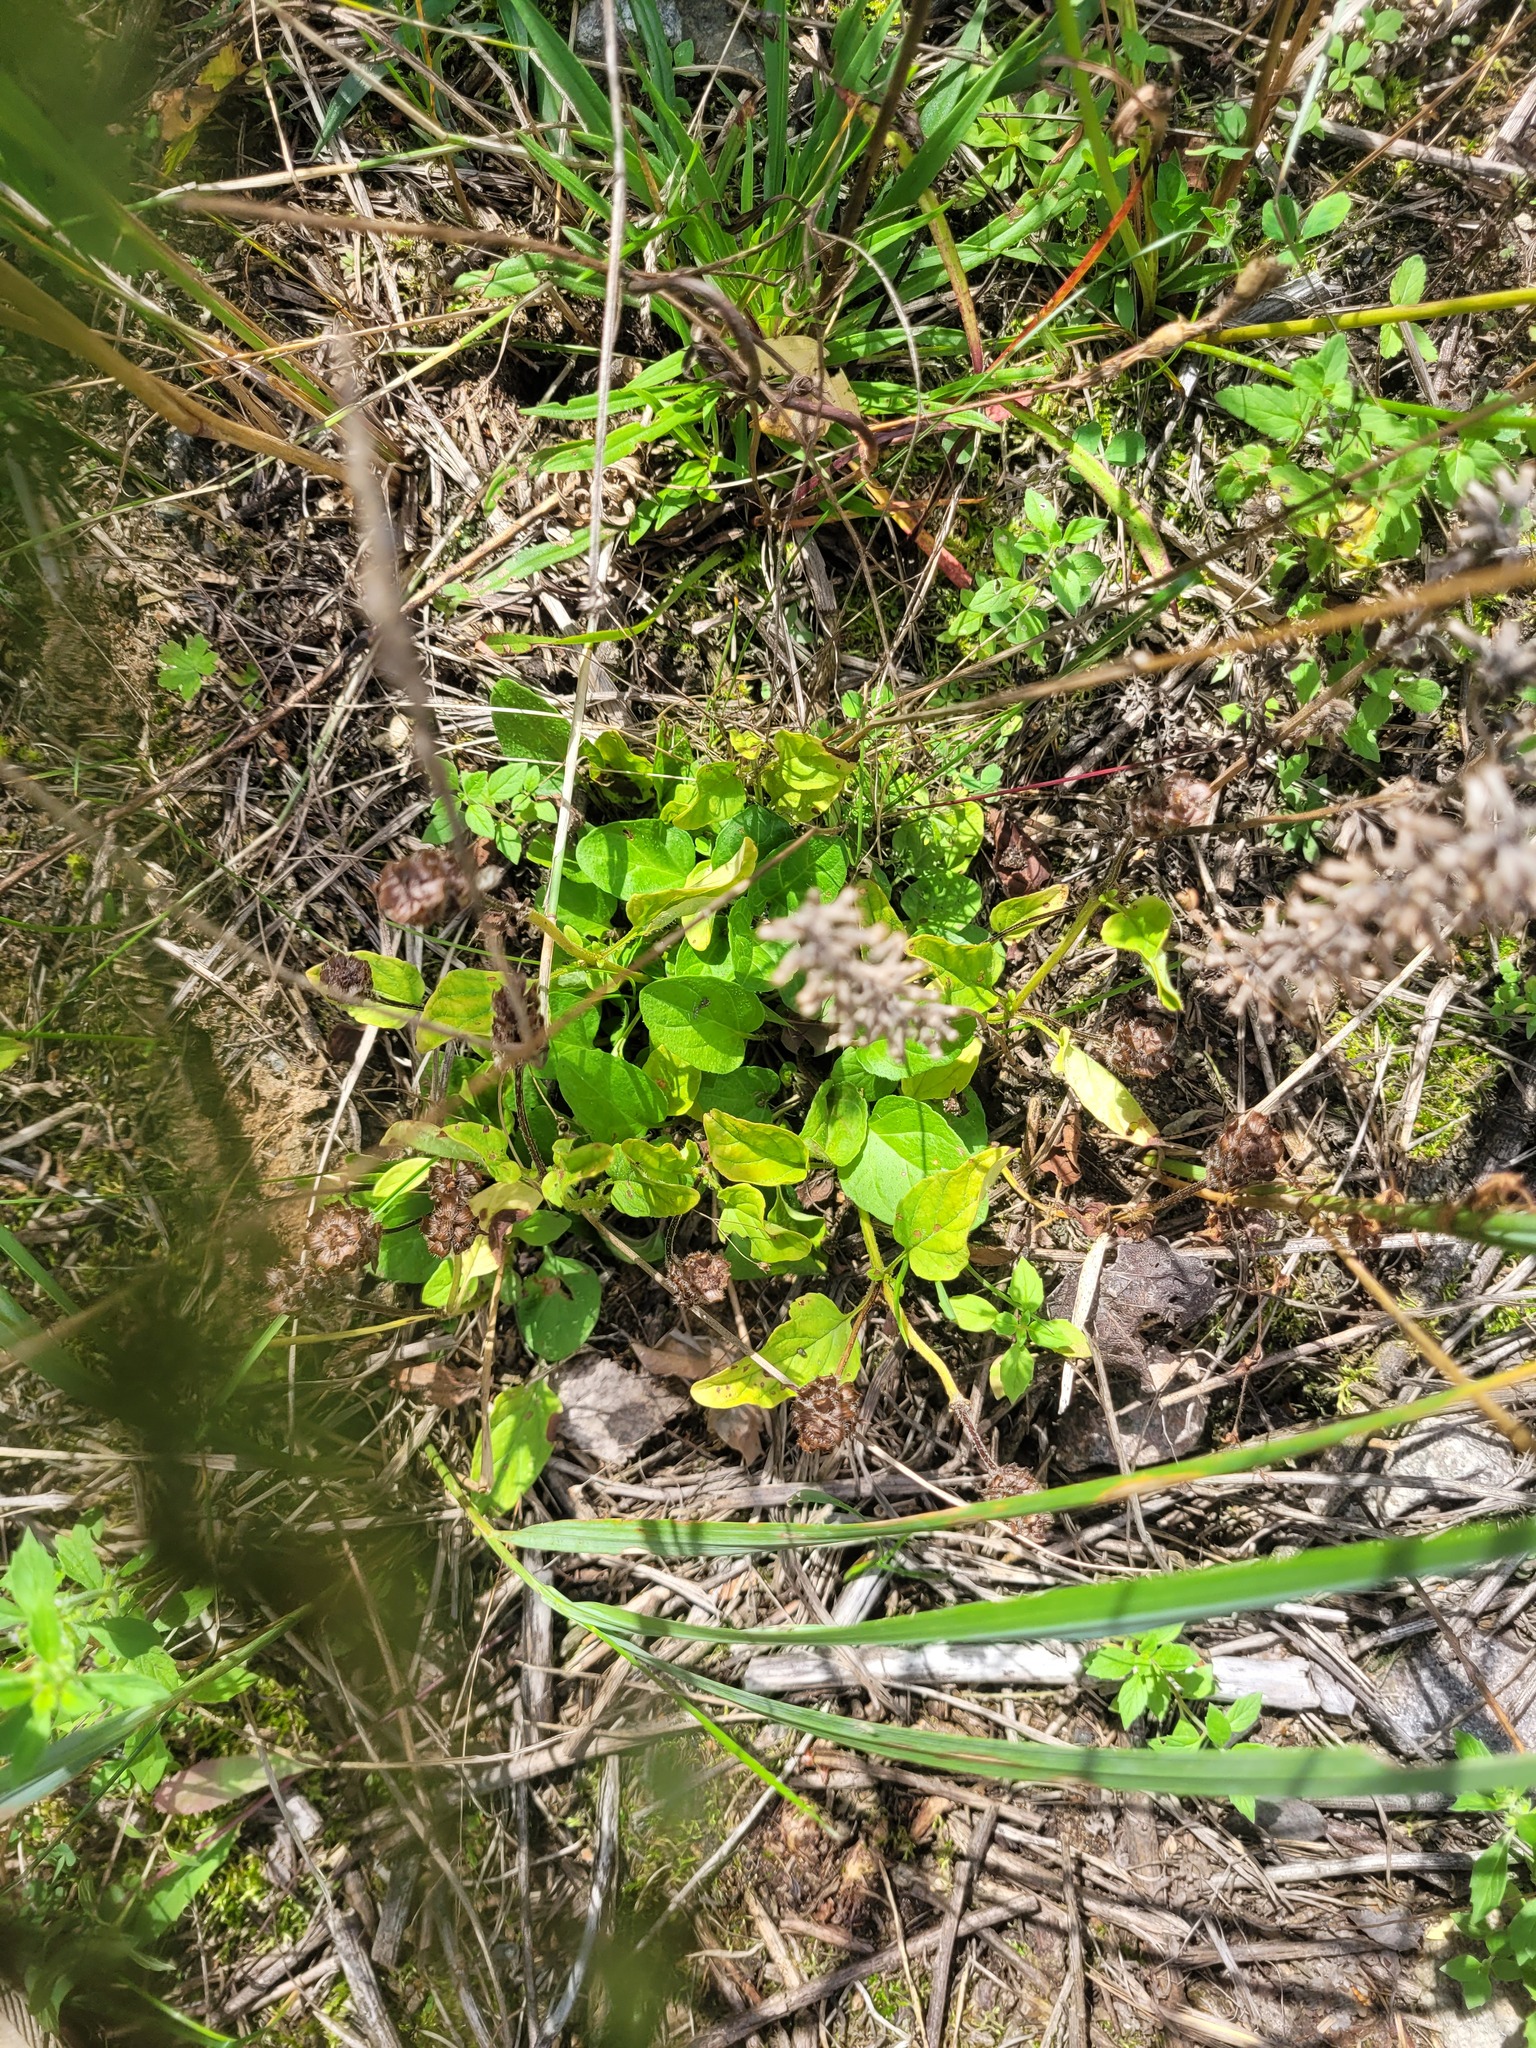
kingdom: Plantae
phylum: Tracheophyta
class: Magnoliopsida
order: Lamiales
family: Lamiaceae
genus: Prunella
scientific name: Prunella vulgaris
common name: Heal-all
